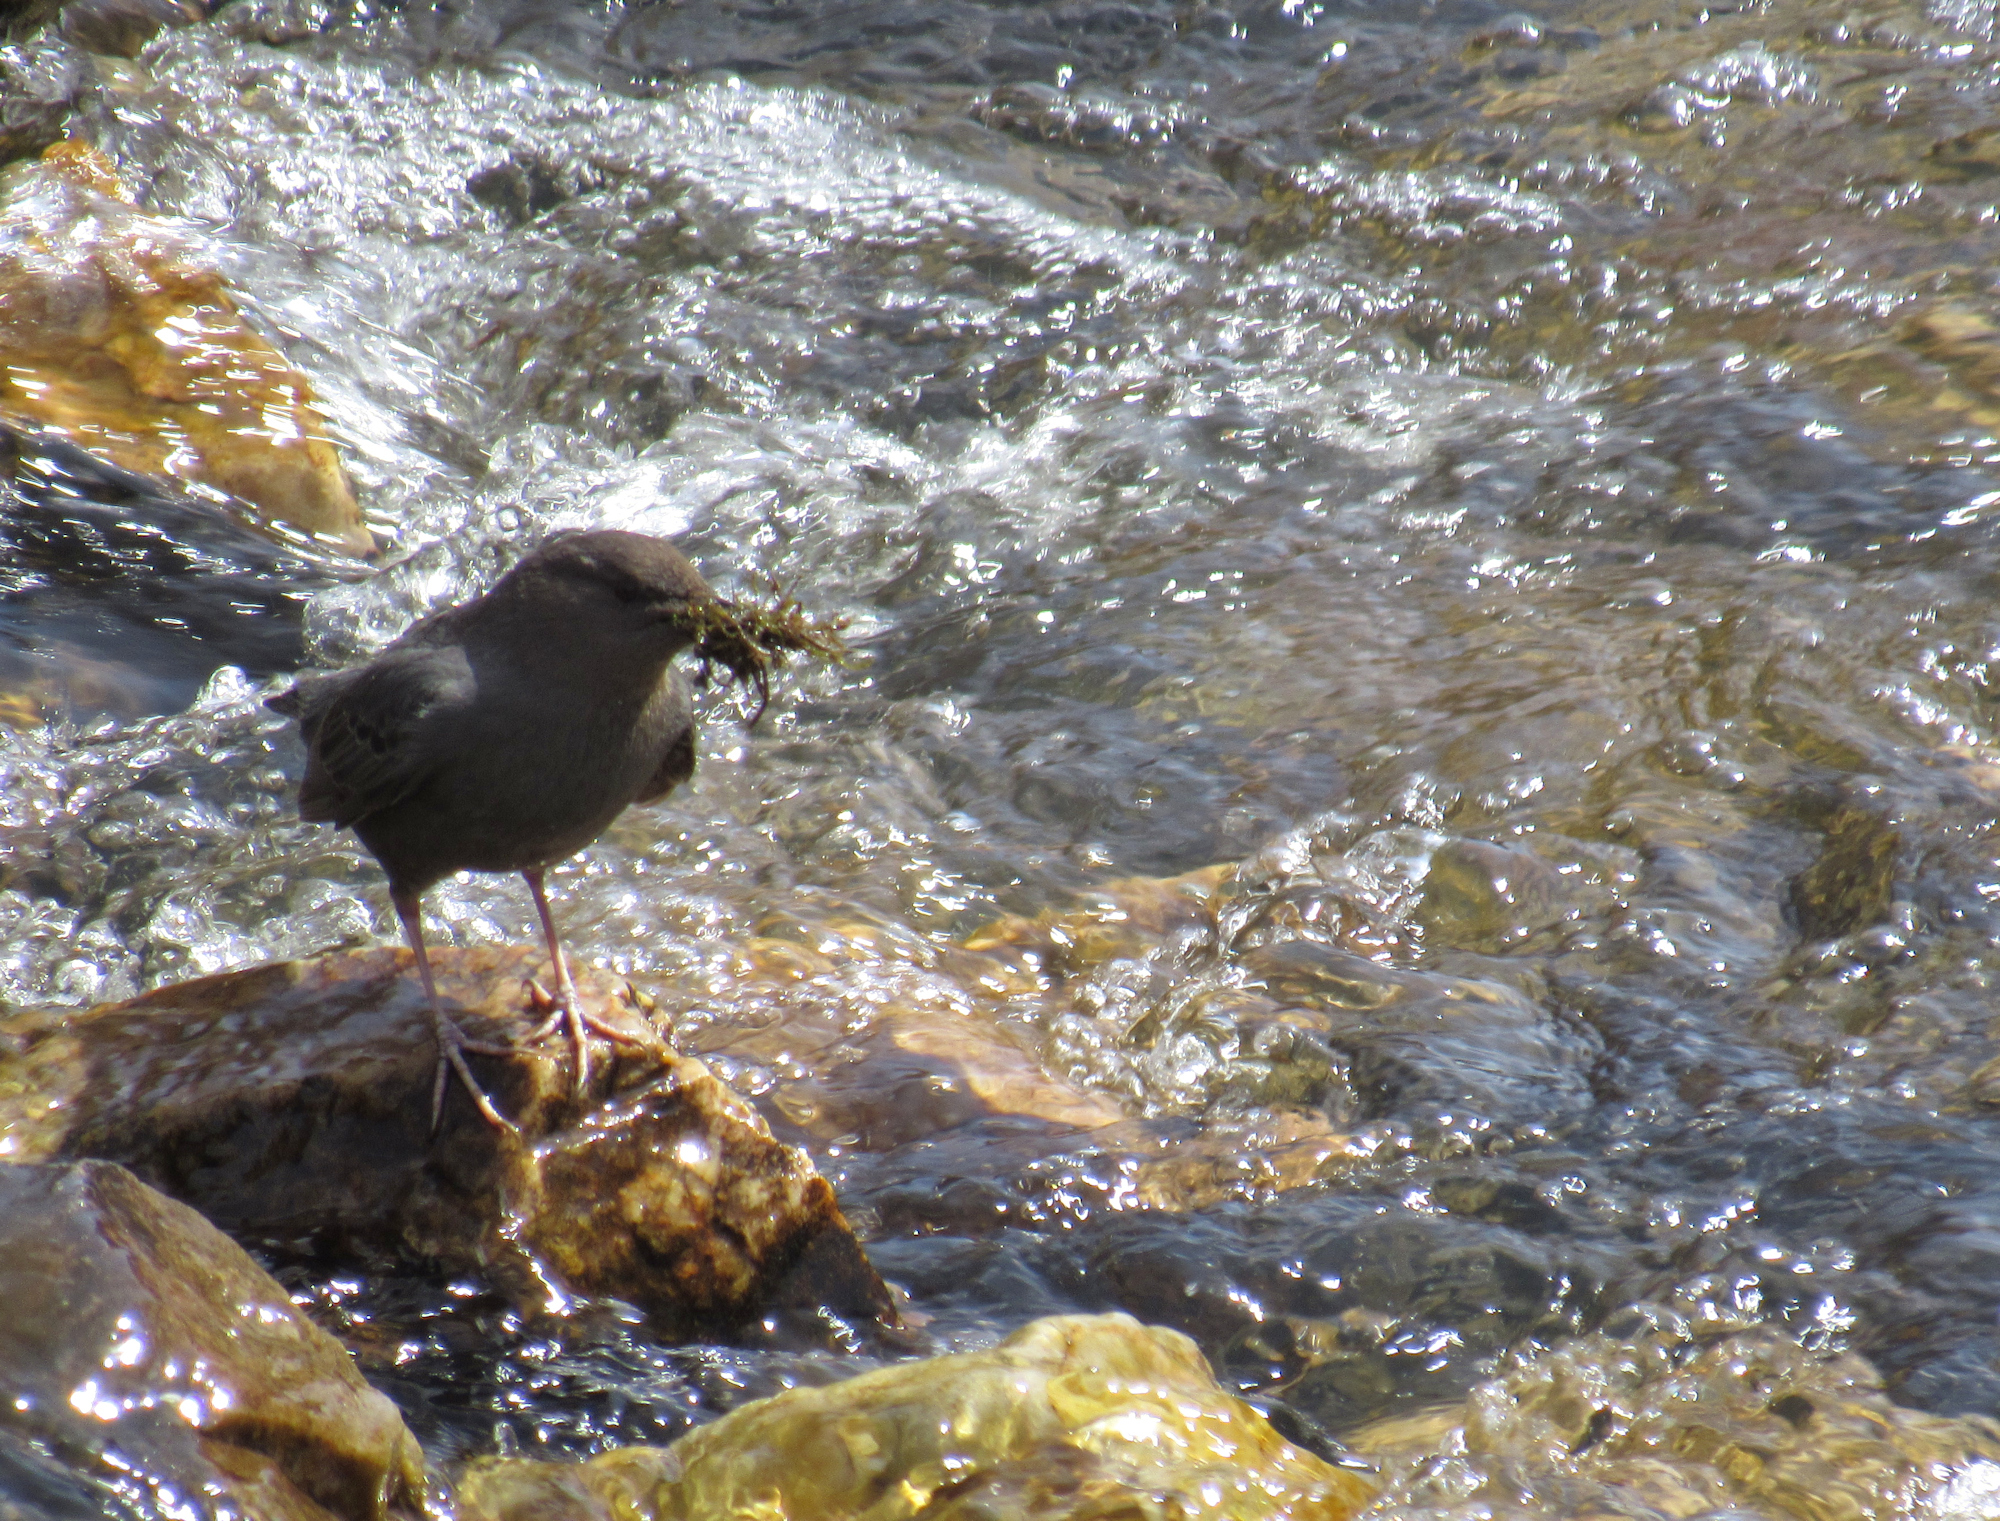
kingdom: Animalia
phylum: Chordata
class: Aves
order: Passeriformes
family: Cinclidae
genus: Cinclus
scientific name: Cinclus mexicanus
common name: American dipper
